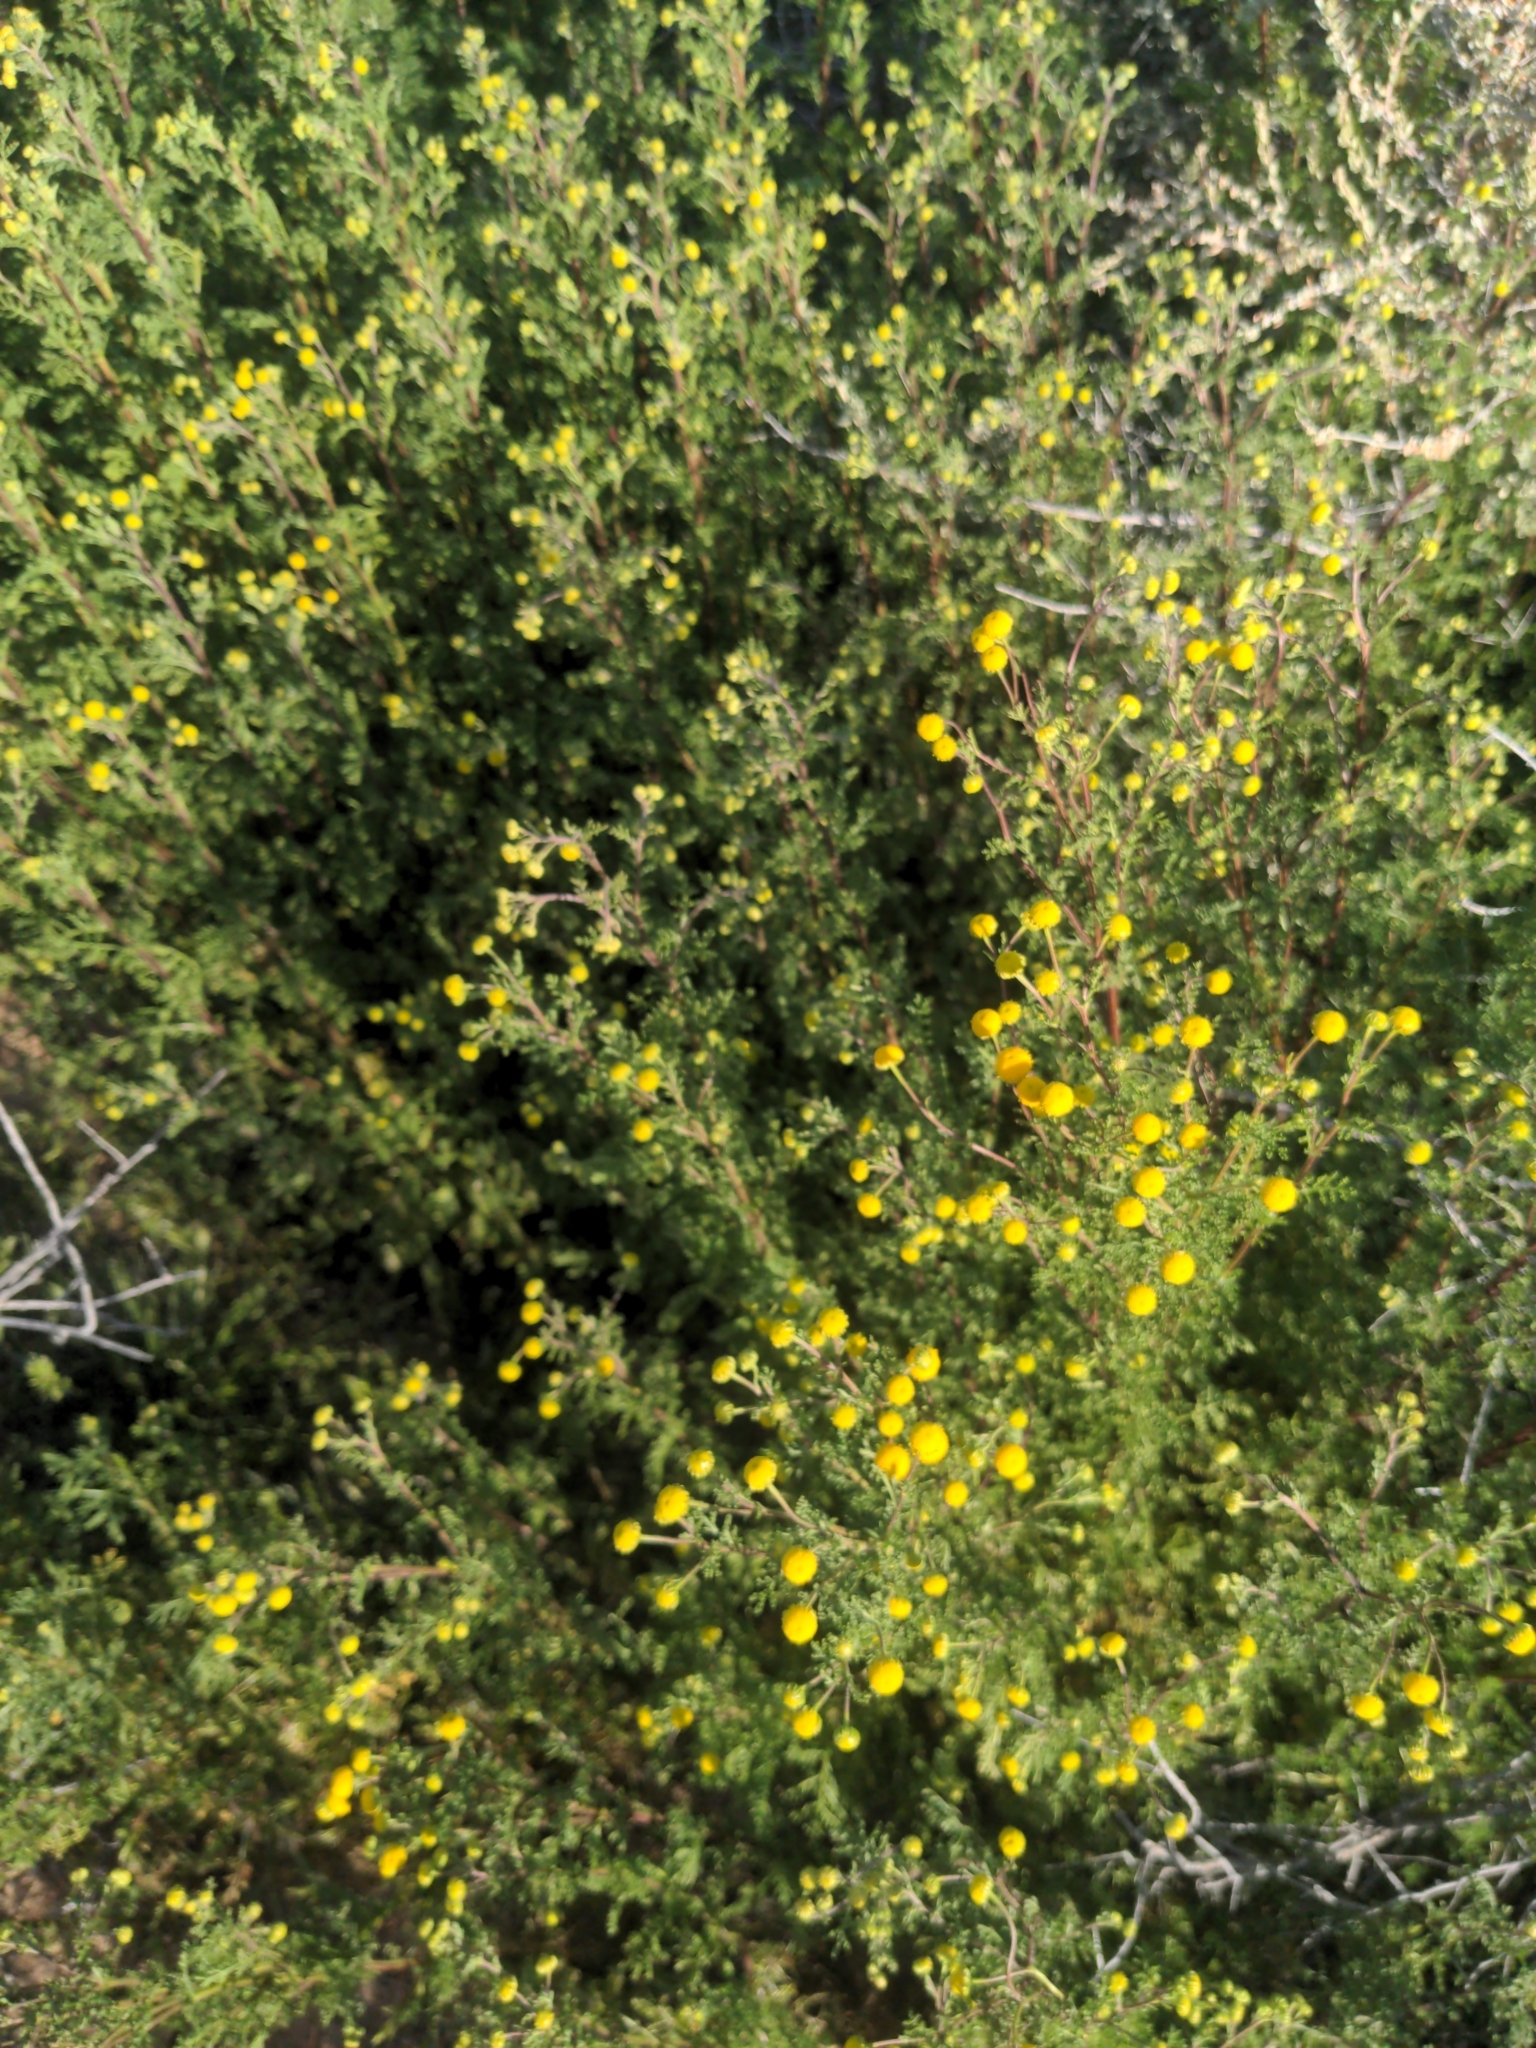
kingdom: Plantae
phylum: Tracheophyta
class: Magnoliopsida
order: Asterales
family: Asteraceae
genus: Oncosiphon
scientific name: Oncosiphon pilulifer
